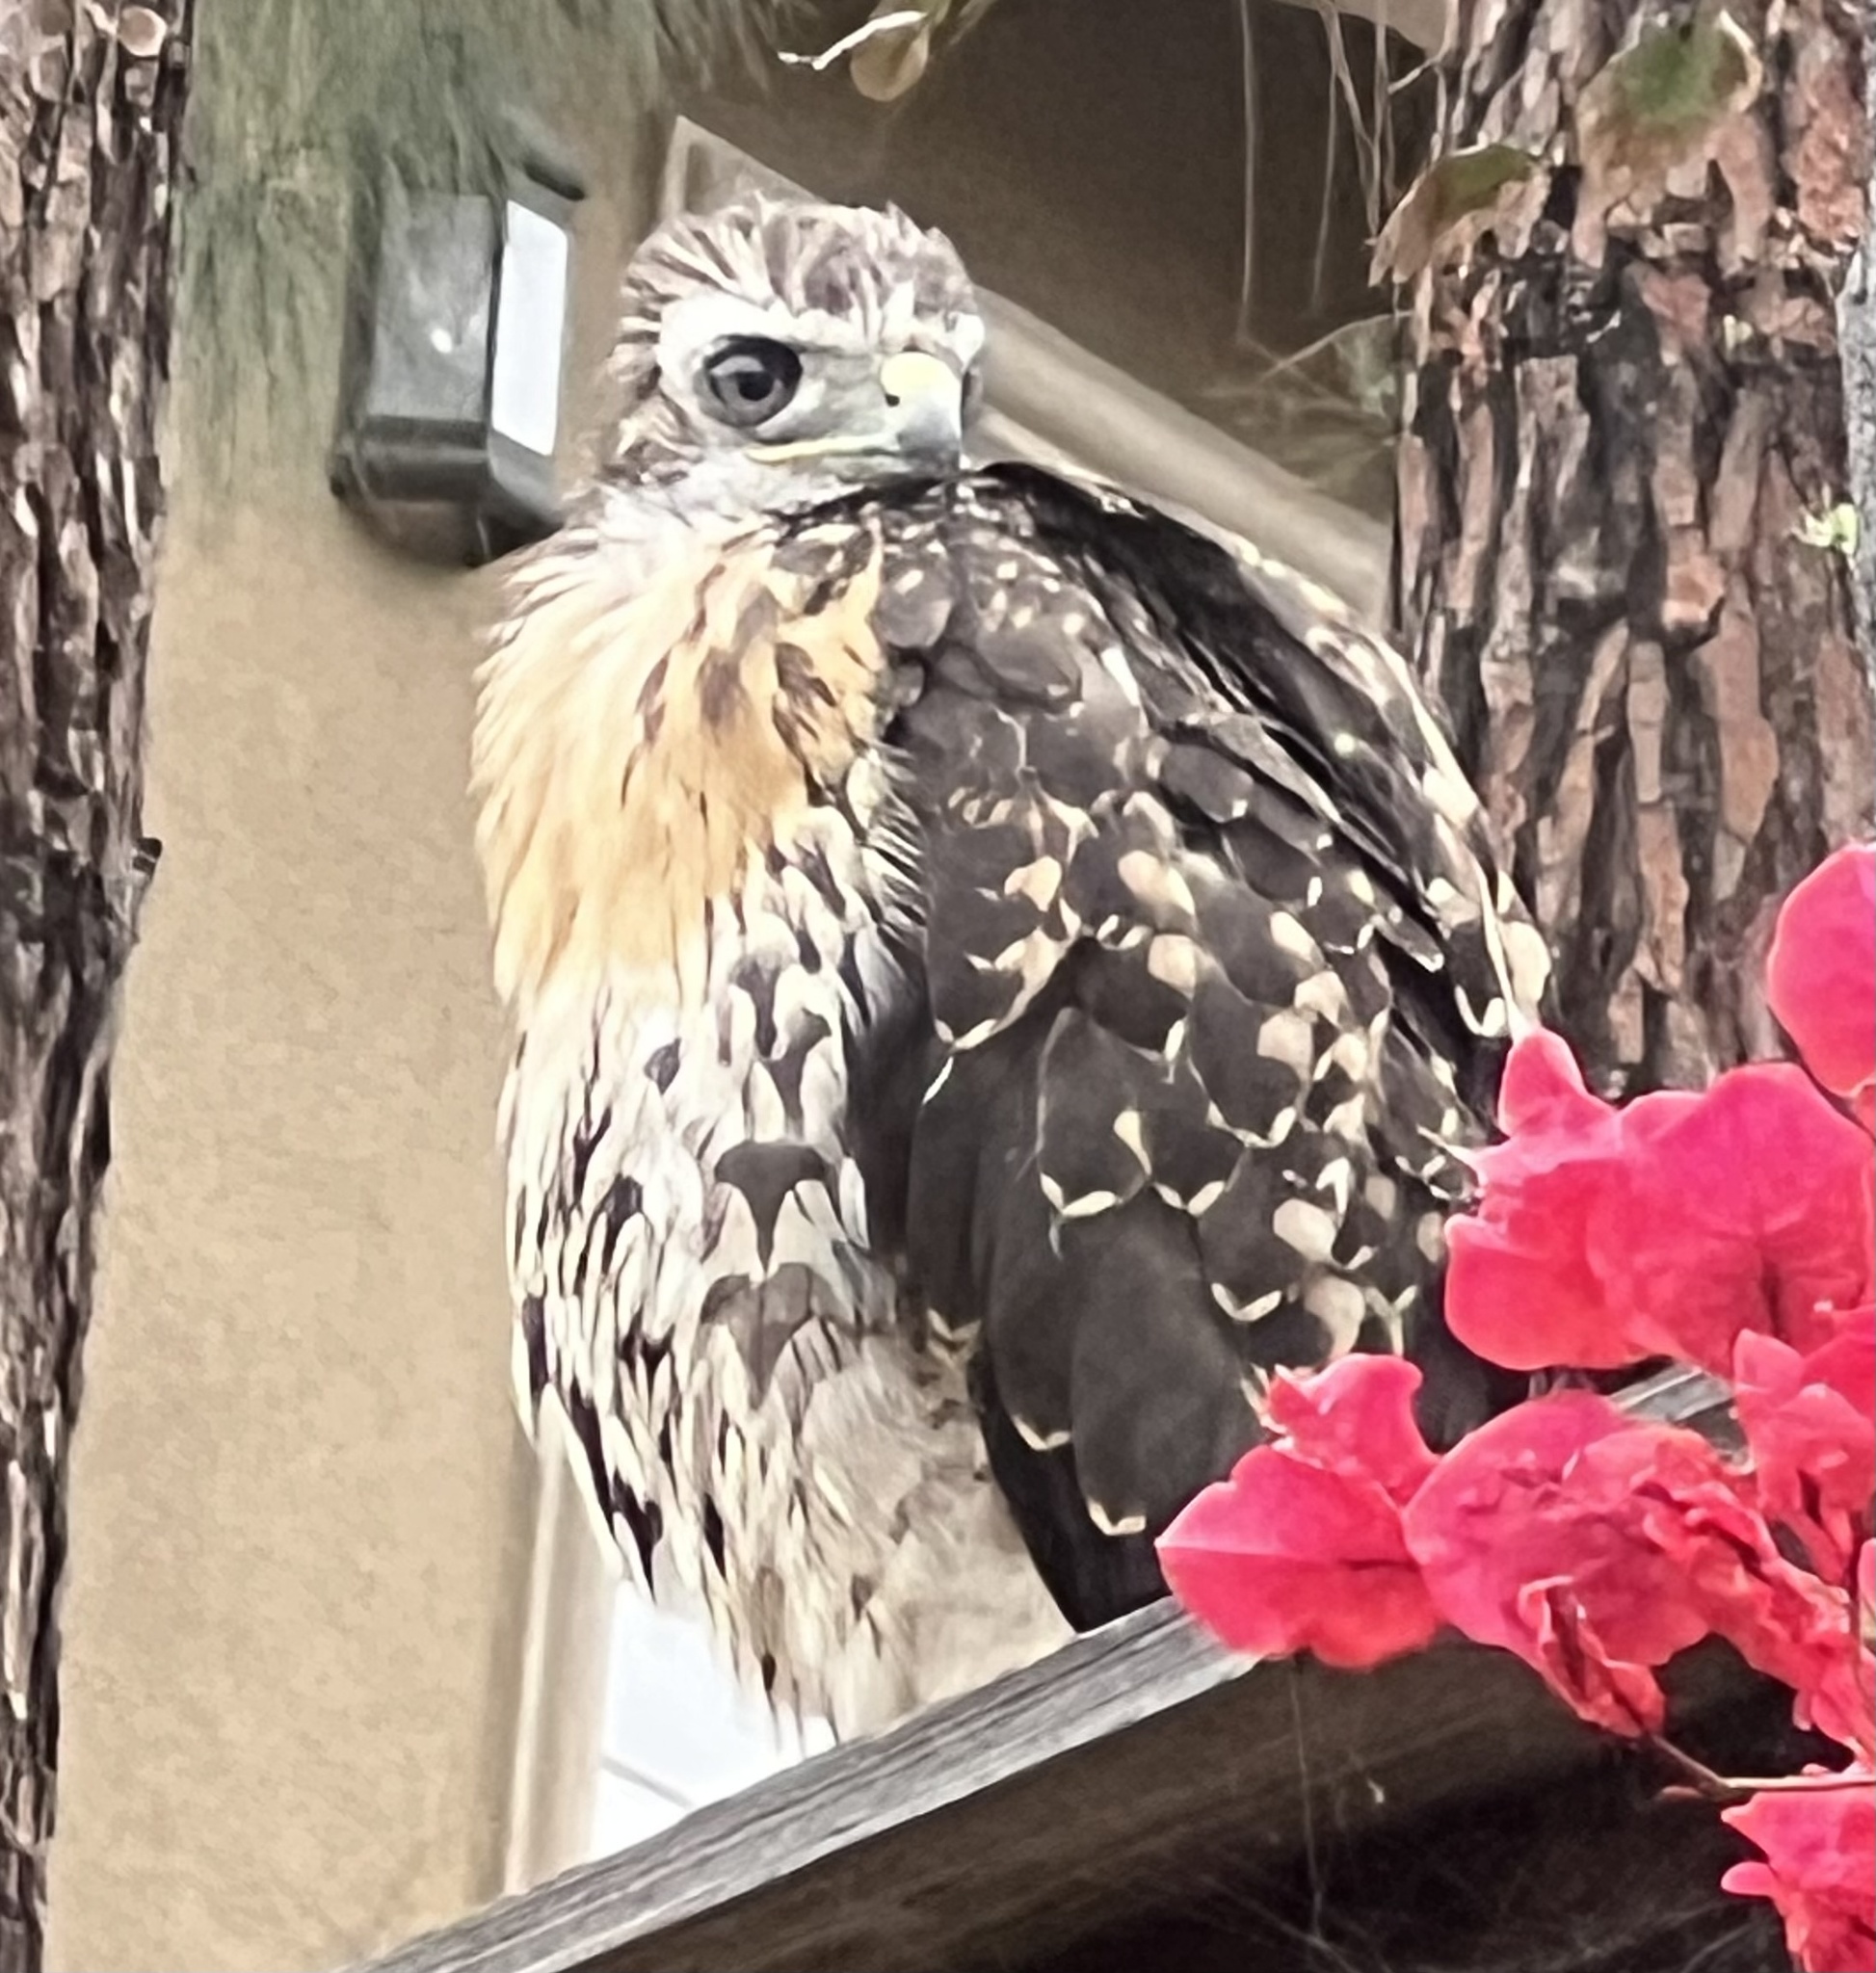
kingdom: Animalia
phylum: Chordata
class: Aves
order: Accipitriformes
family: Accipitridae
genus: Buteo
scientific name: Buteo jamaicensis
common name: Red-tailed hawk
